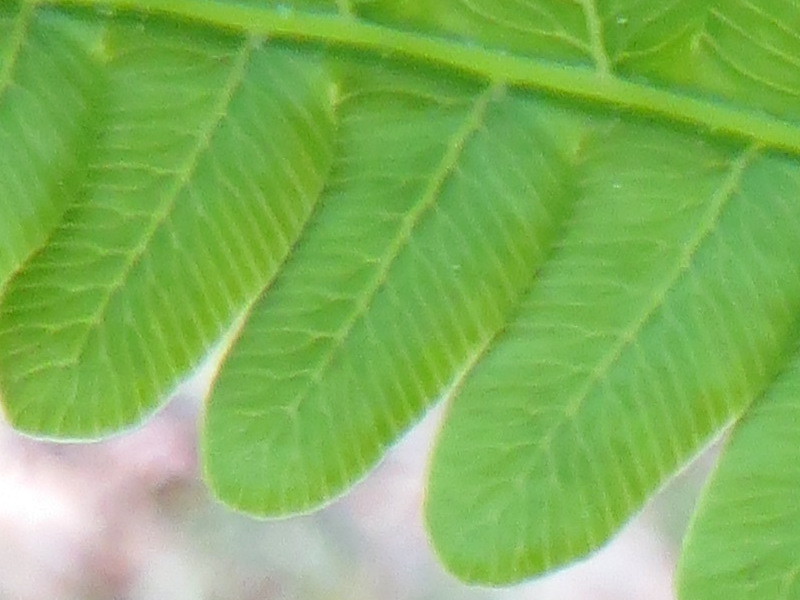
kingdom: Plantae
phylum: Tracheophyta
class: Polypodiopsida
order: Osmundales
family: Osmundaceae
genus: Claytosmunda
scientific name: Claytosmunda claytoniana
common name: Clayton's fern
